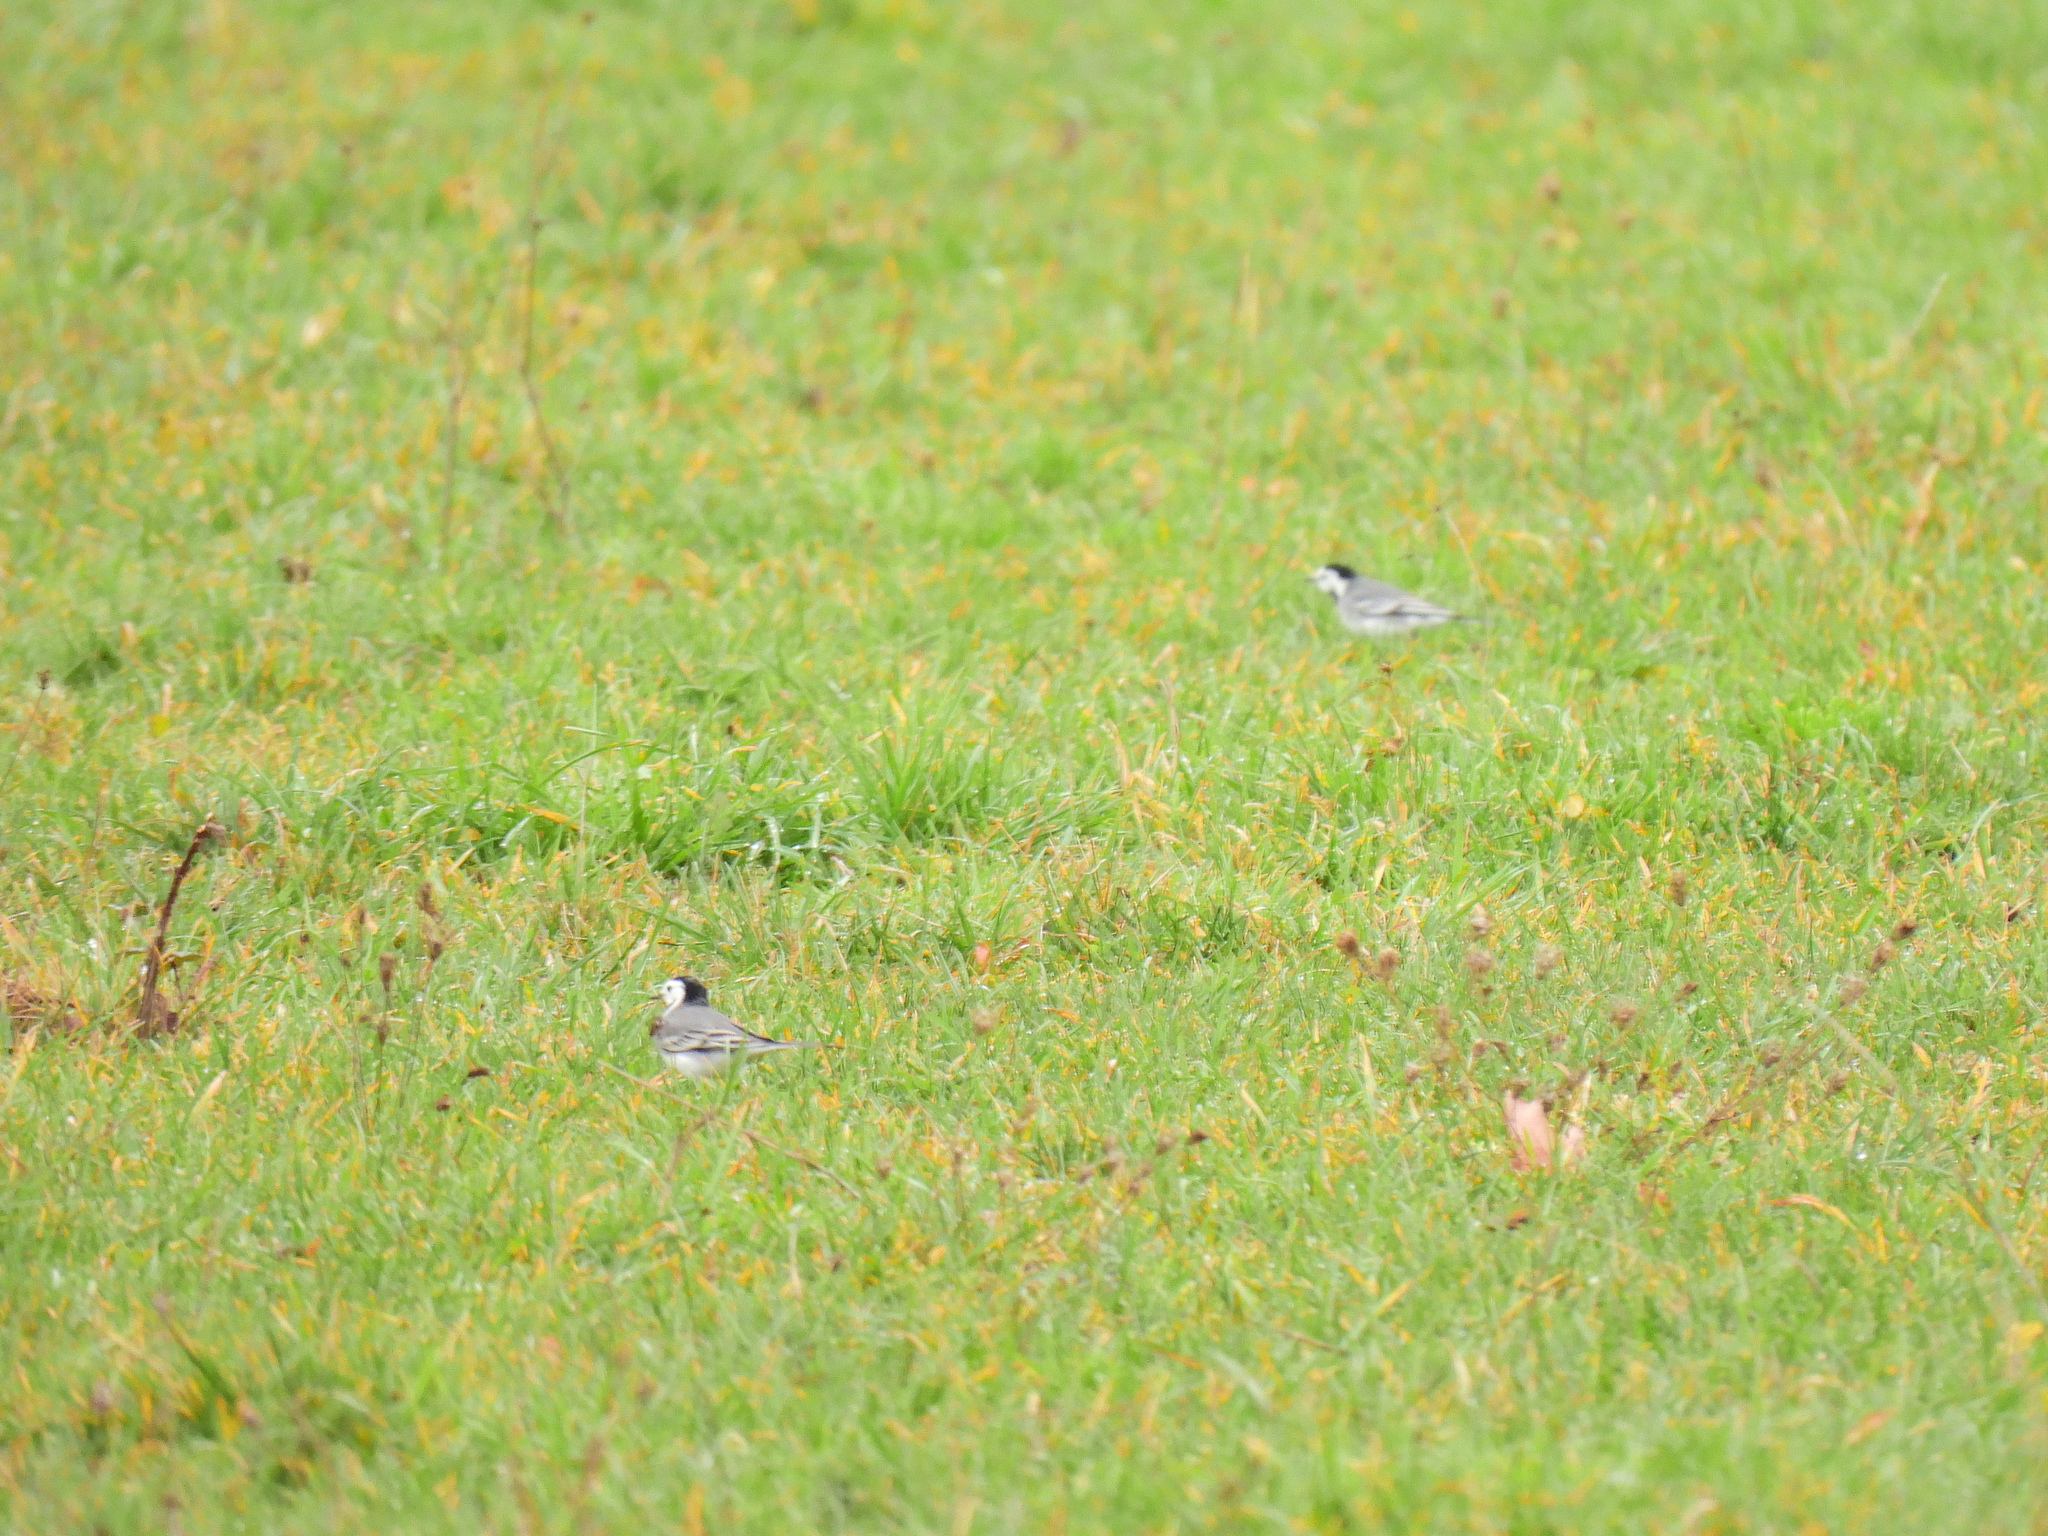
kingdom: Animalia
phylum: Chordata
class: Aves
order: Passeriformes
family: Motacillidae
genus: Motacilla
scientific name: Motacilla alba
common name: White wagtail
